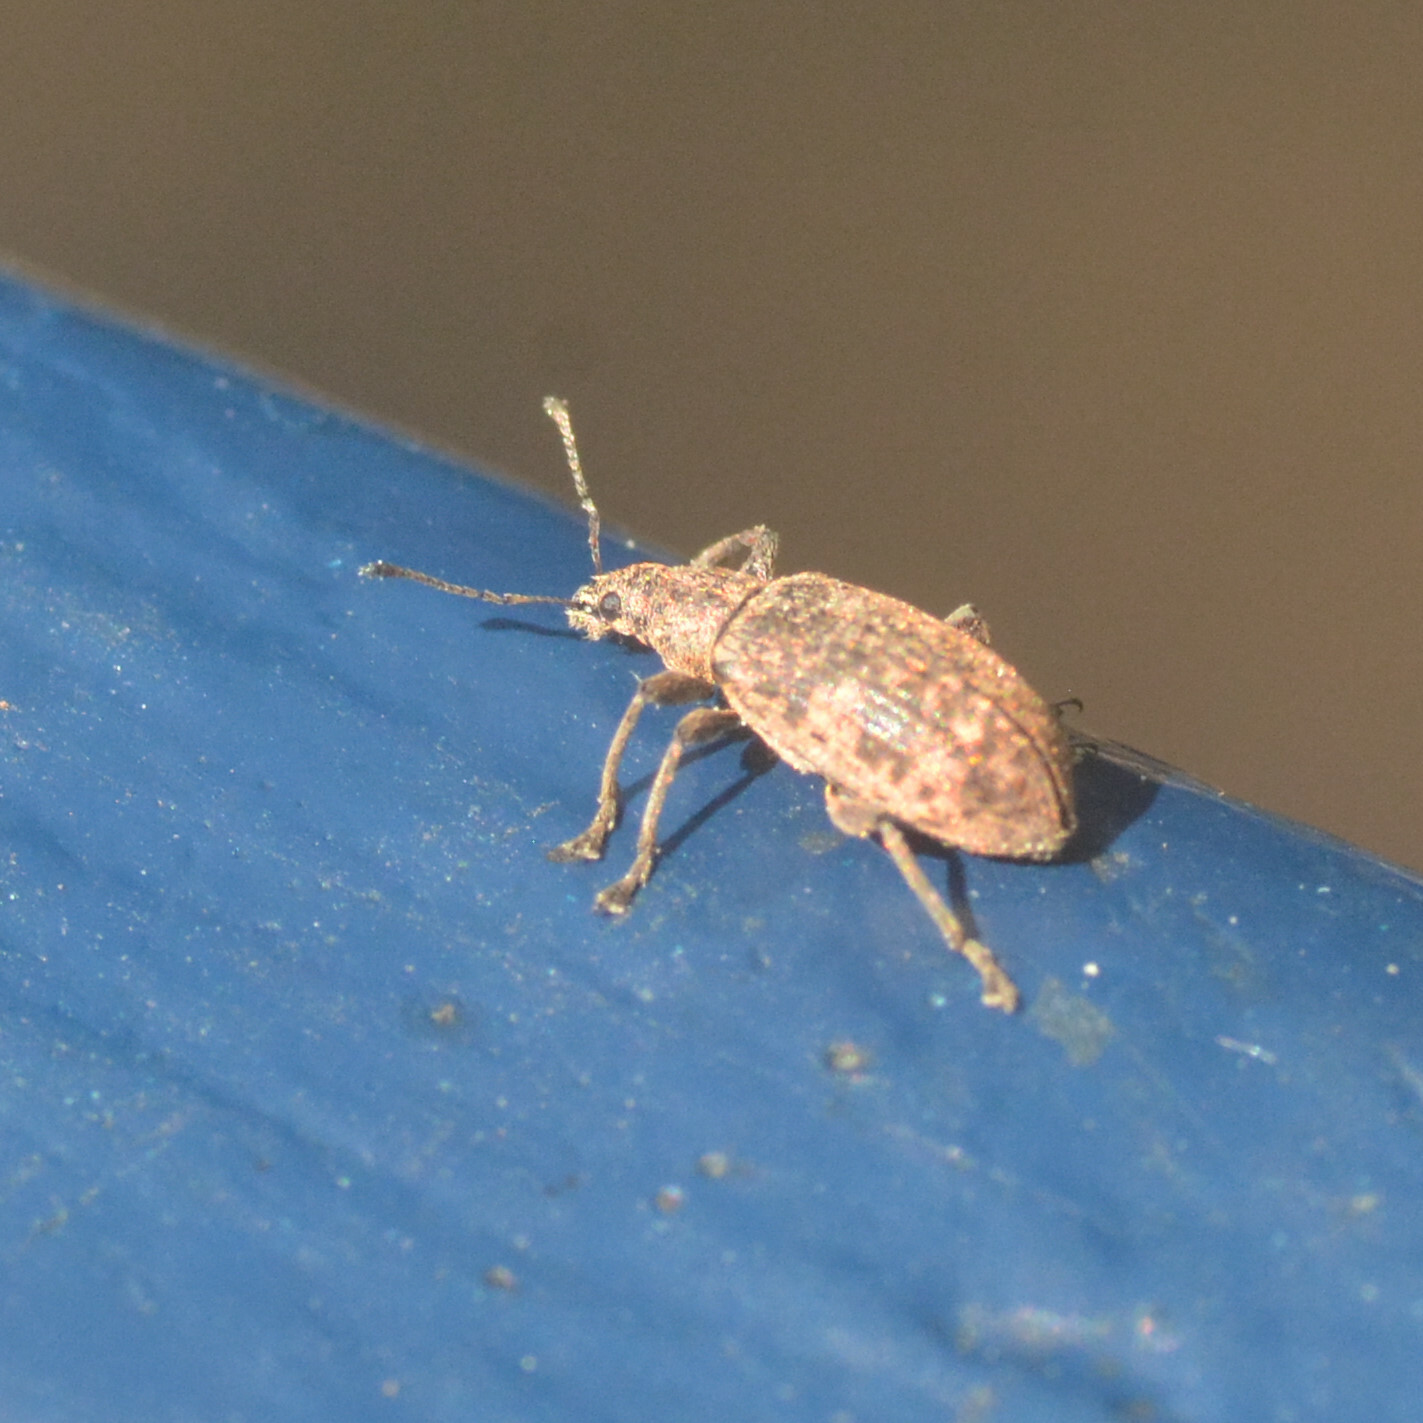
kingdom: Animalia
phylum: Arthropoda
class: Insecta
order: Coleoptera
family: Curculionidae
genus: Polydrusus
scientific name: Polydrusus pilosus
